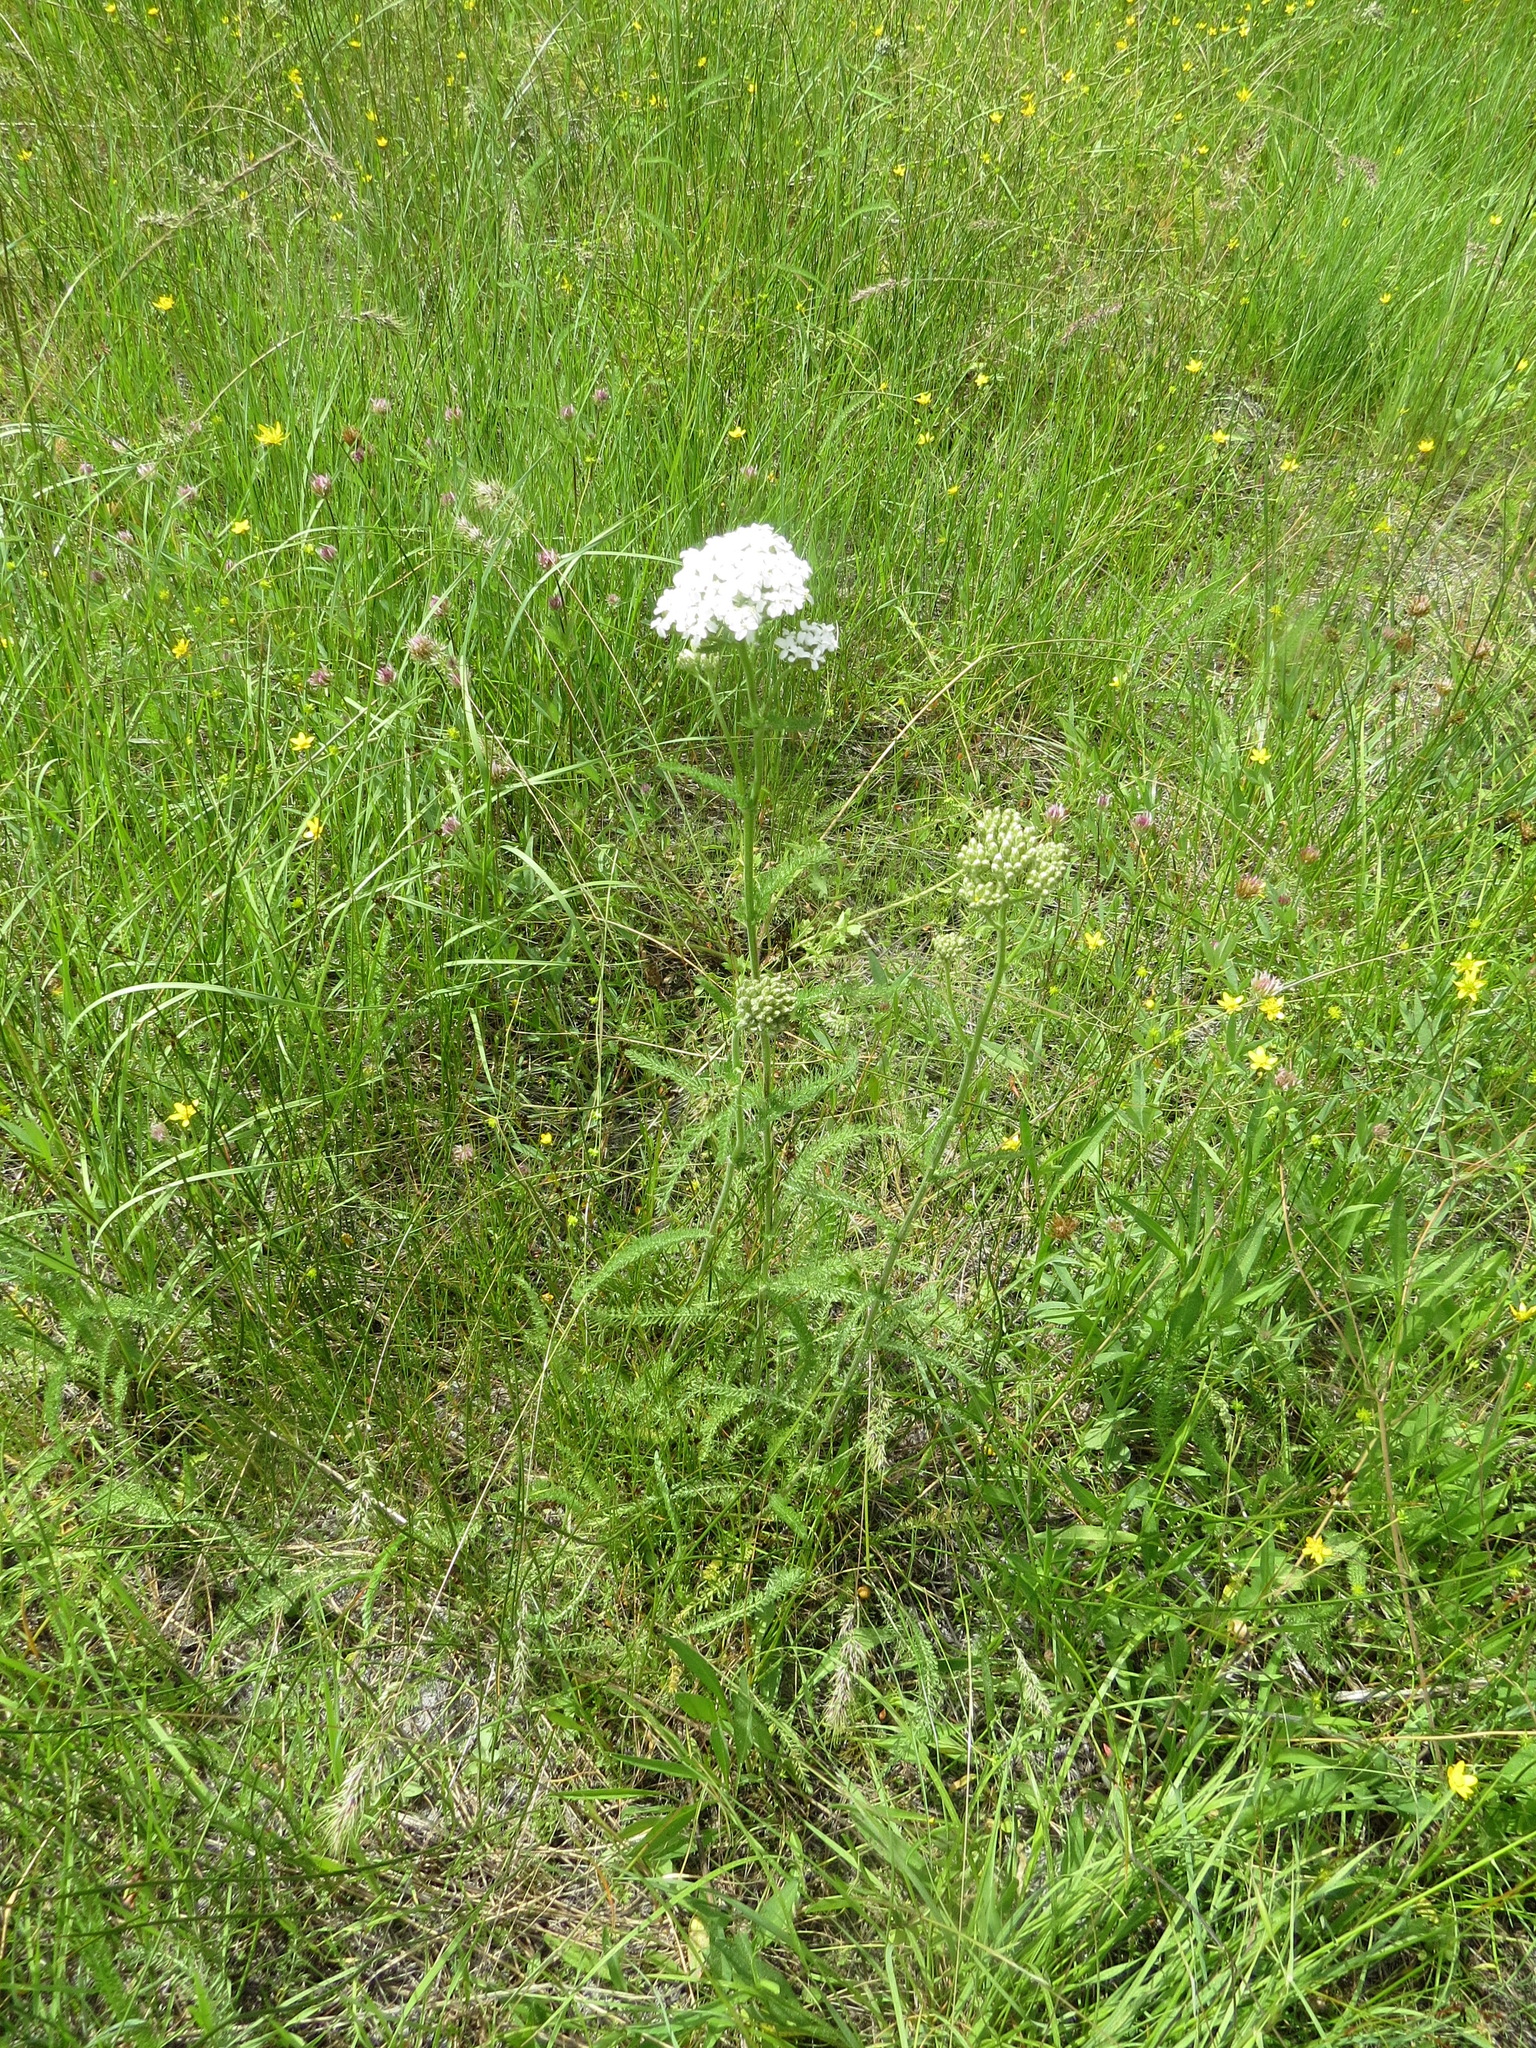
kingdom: Plantae
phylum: Tracheophyta
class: Magnoliopsida
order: Asterales
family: Asteraceae
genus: Achillea
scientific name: Achillea millefolium
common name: Yarrow
